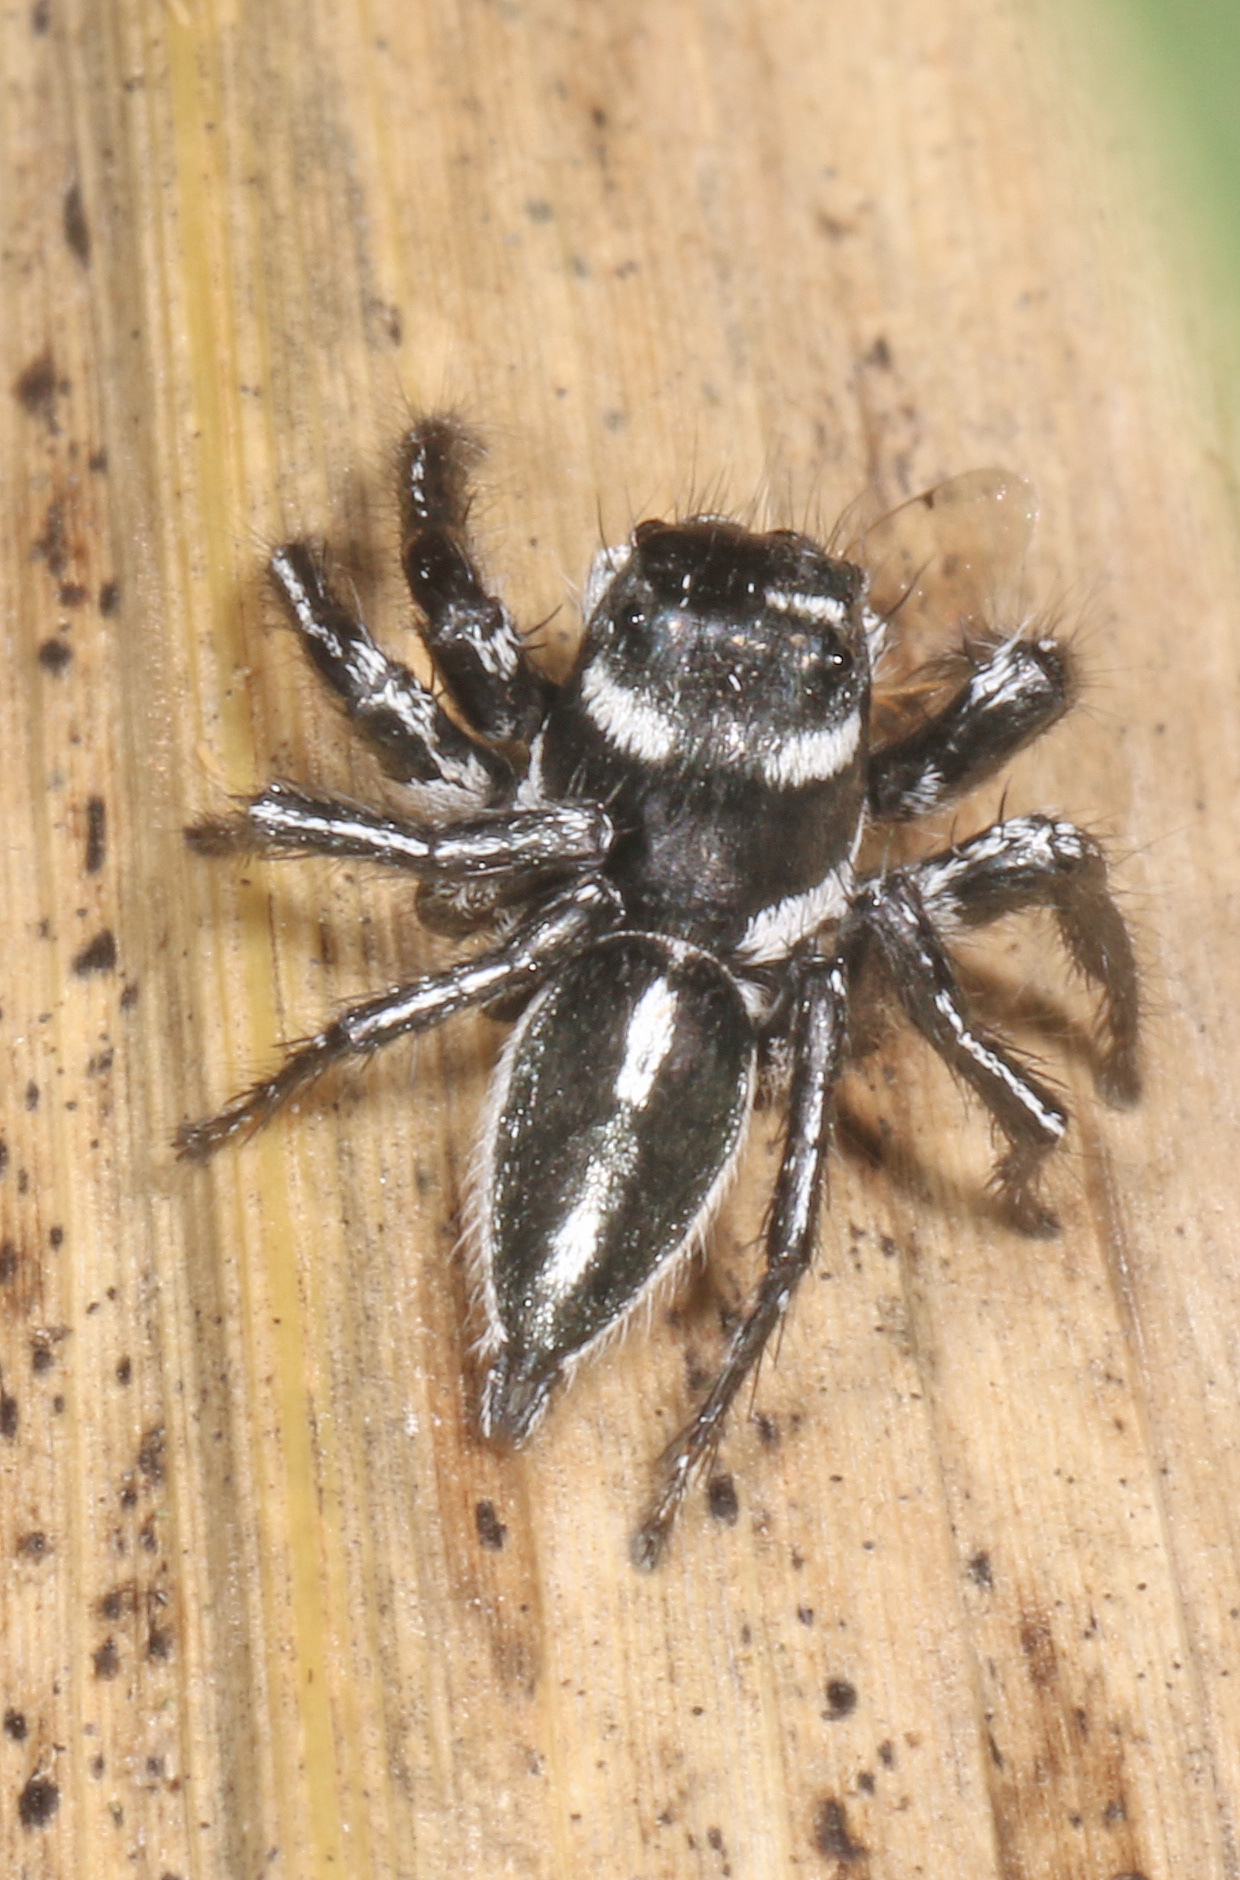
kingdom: Animalia
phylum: Arthropoda
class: Arachnida
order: Araneae
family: Salticidae
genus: Hyllus
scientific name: Hyllus argyrotoxus
